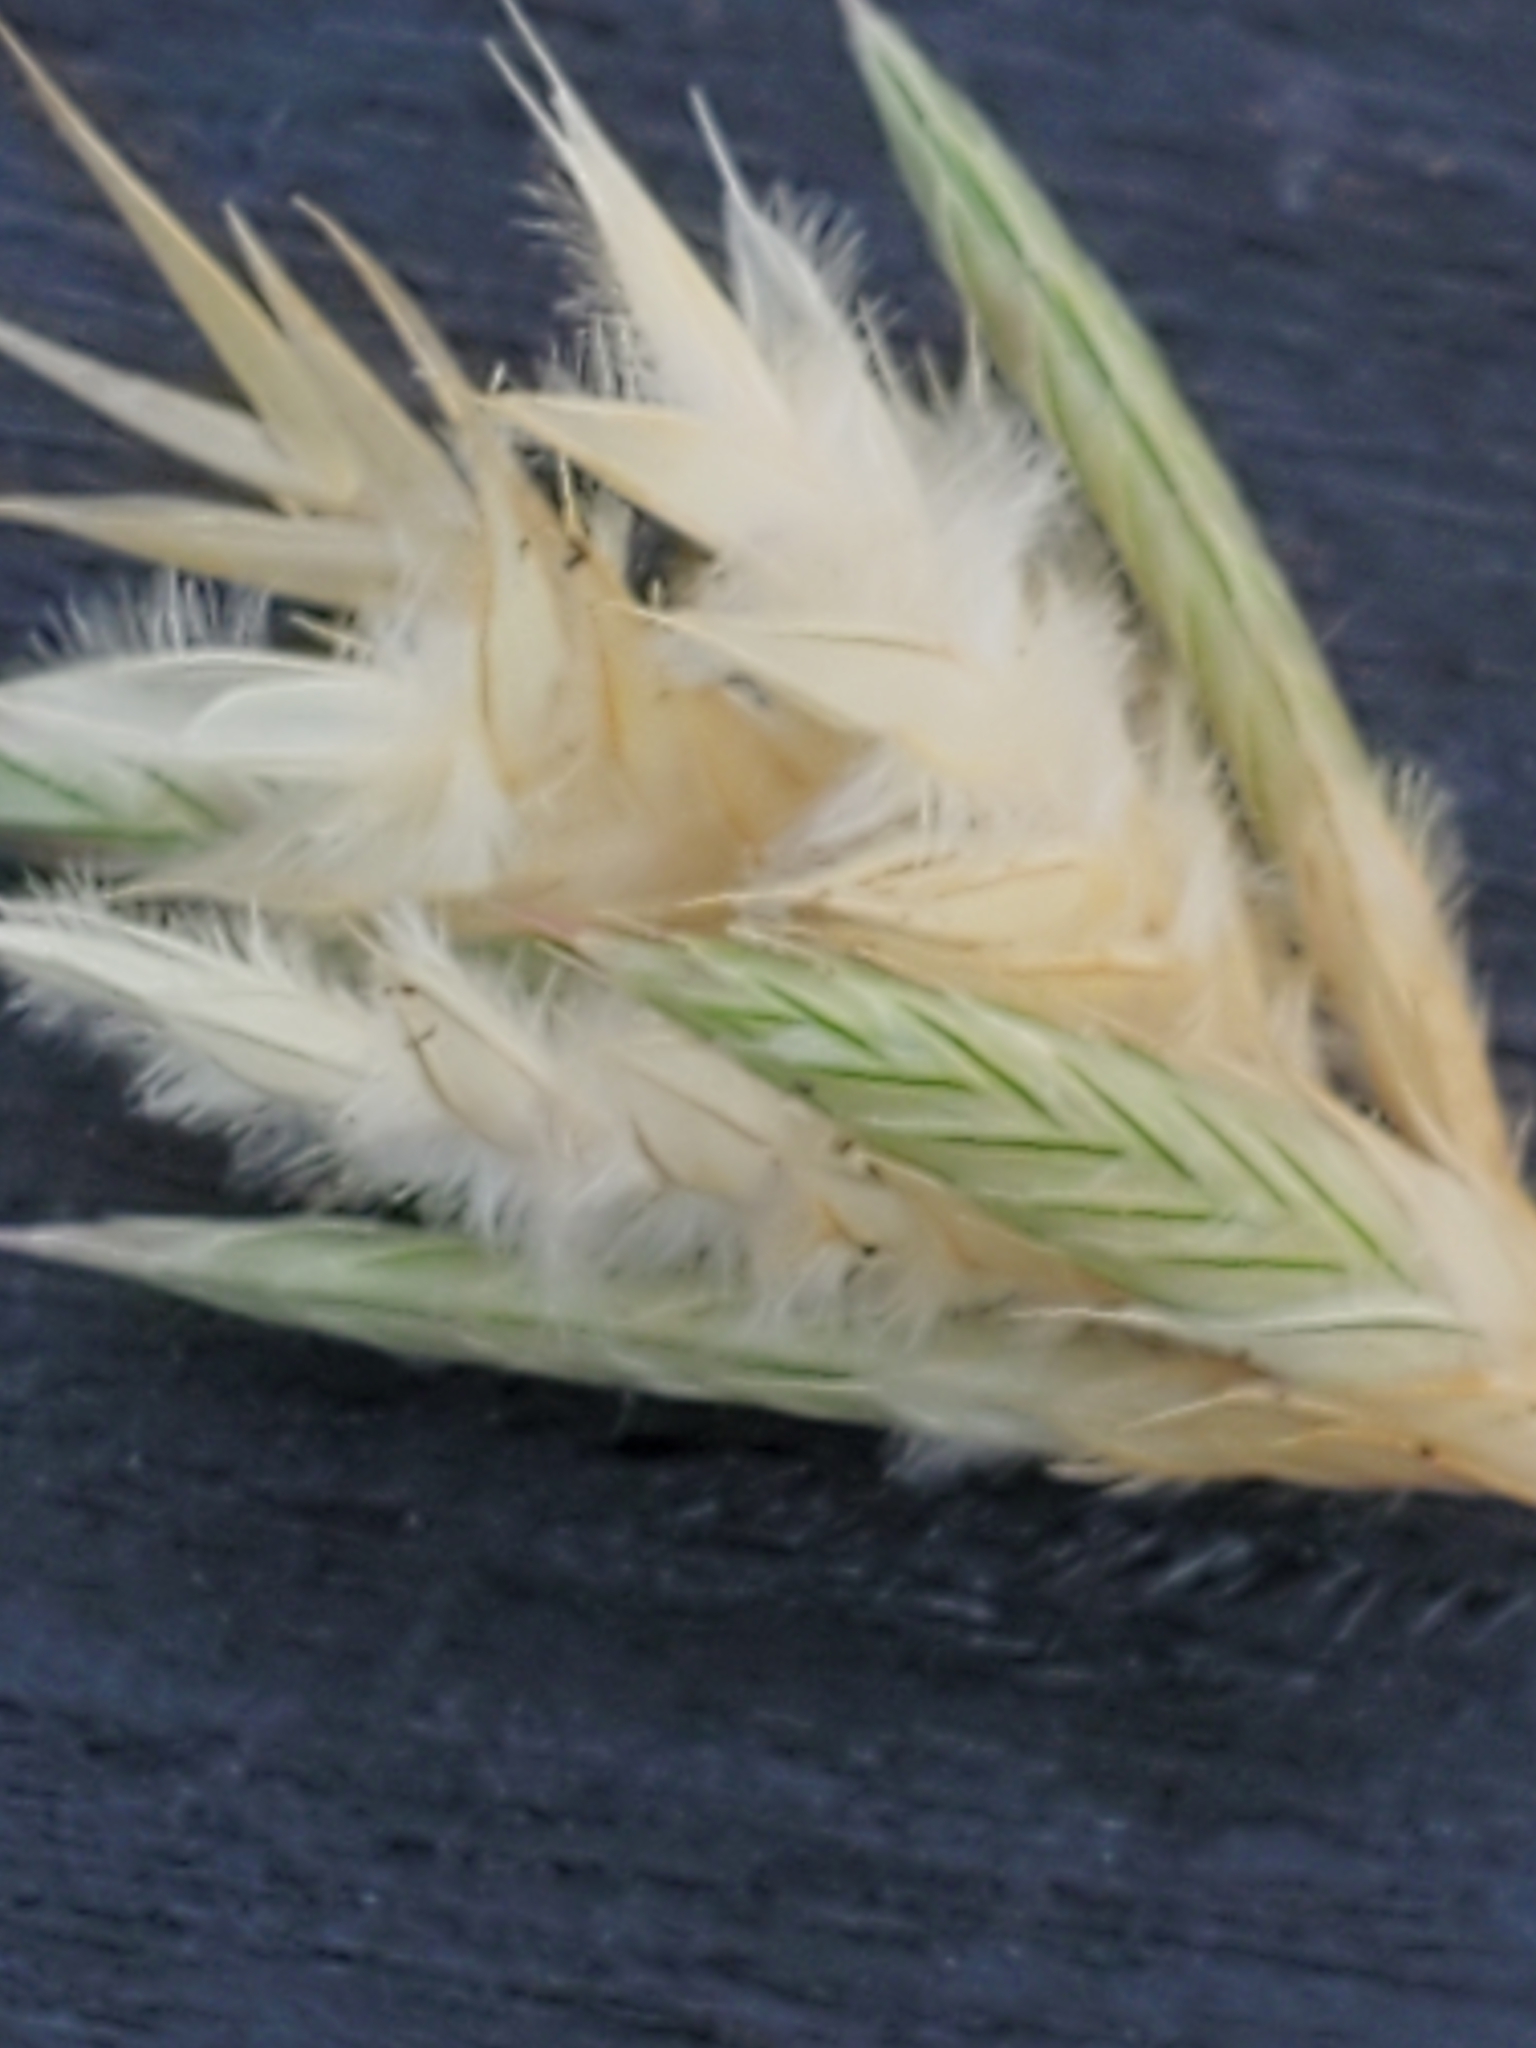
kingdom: Plantae
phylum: Tracheophyta
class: Liliopsida
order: Poales
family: Poaceae
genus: Erioneuron
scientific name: Erioneuron pilosum
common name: Hairy woolly grass
